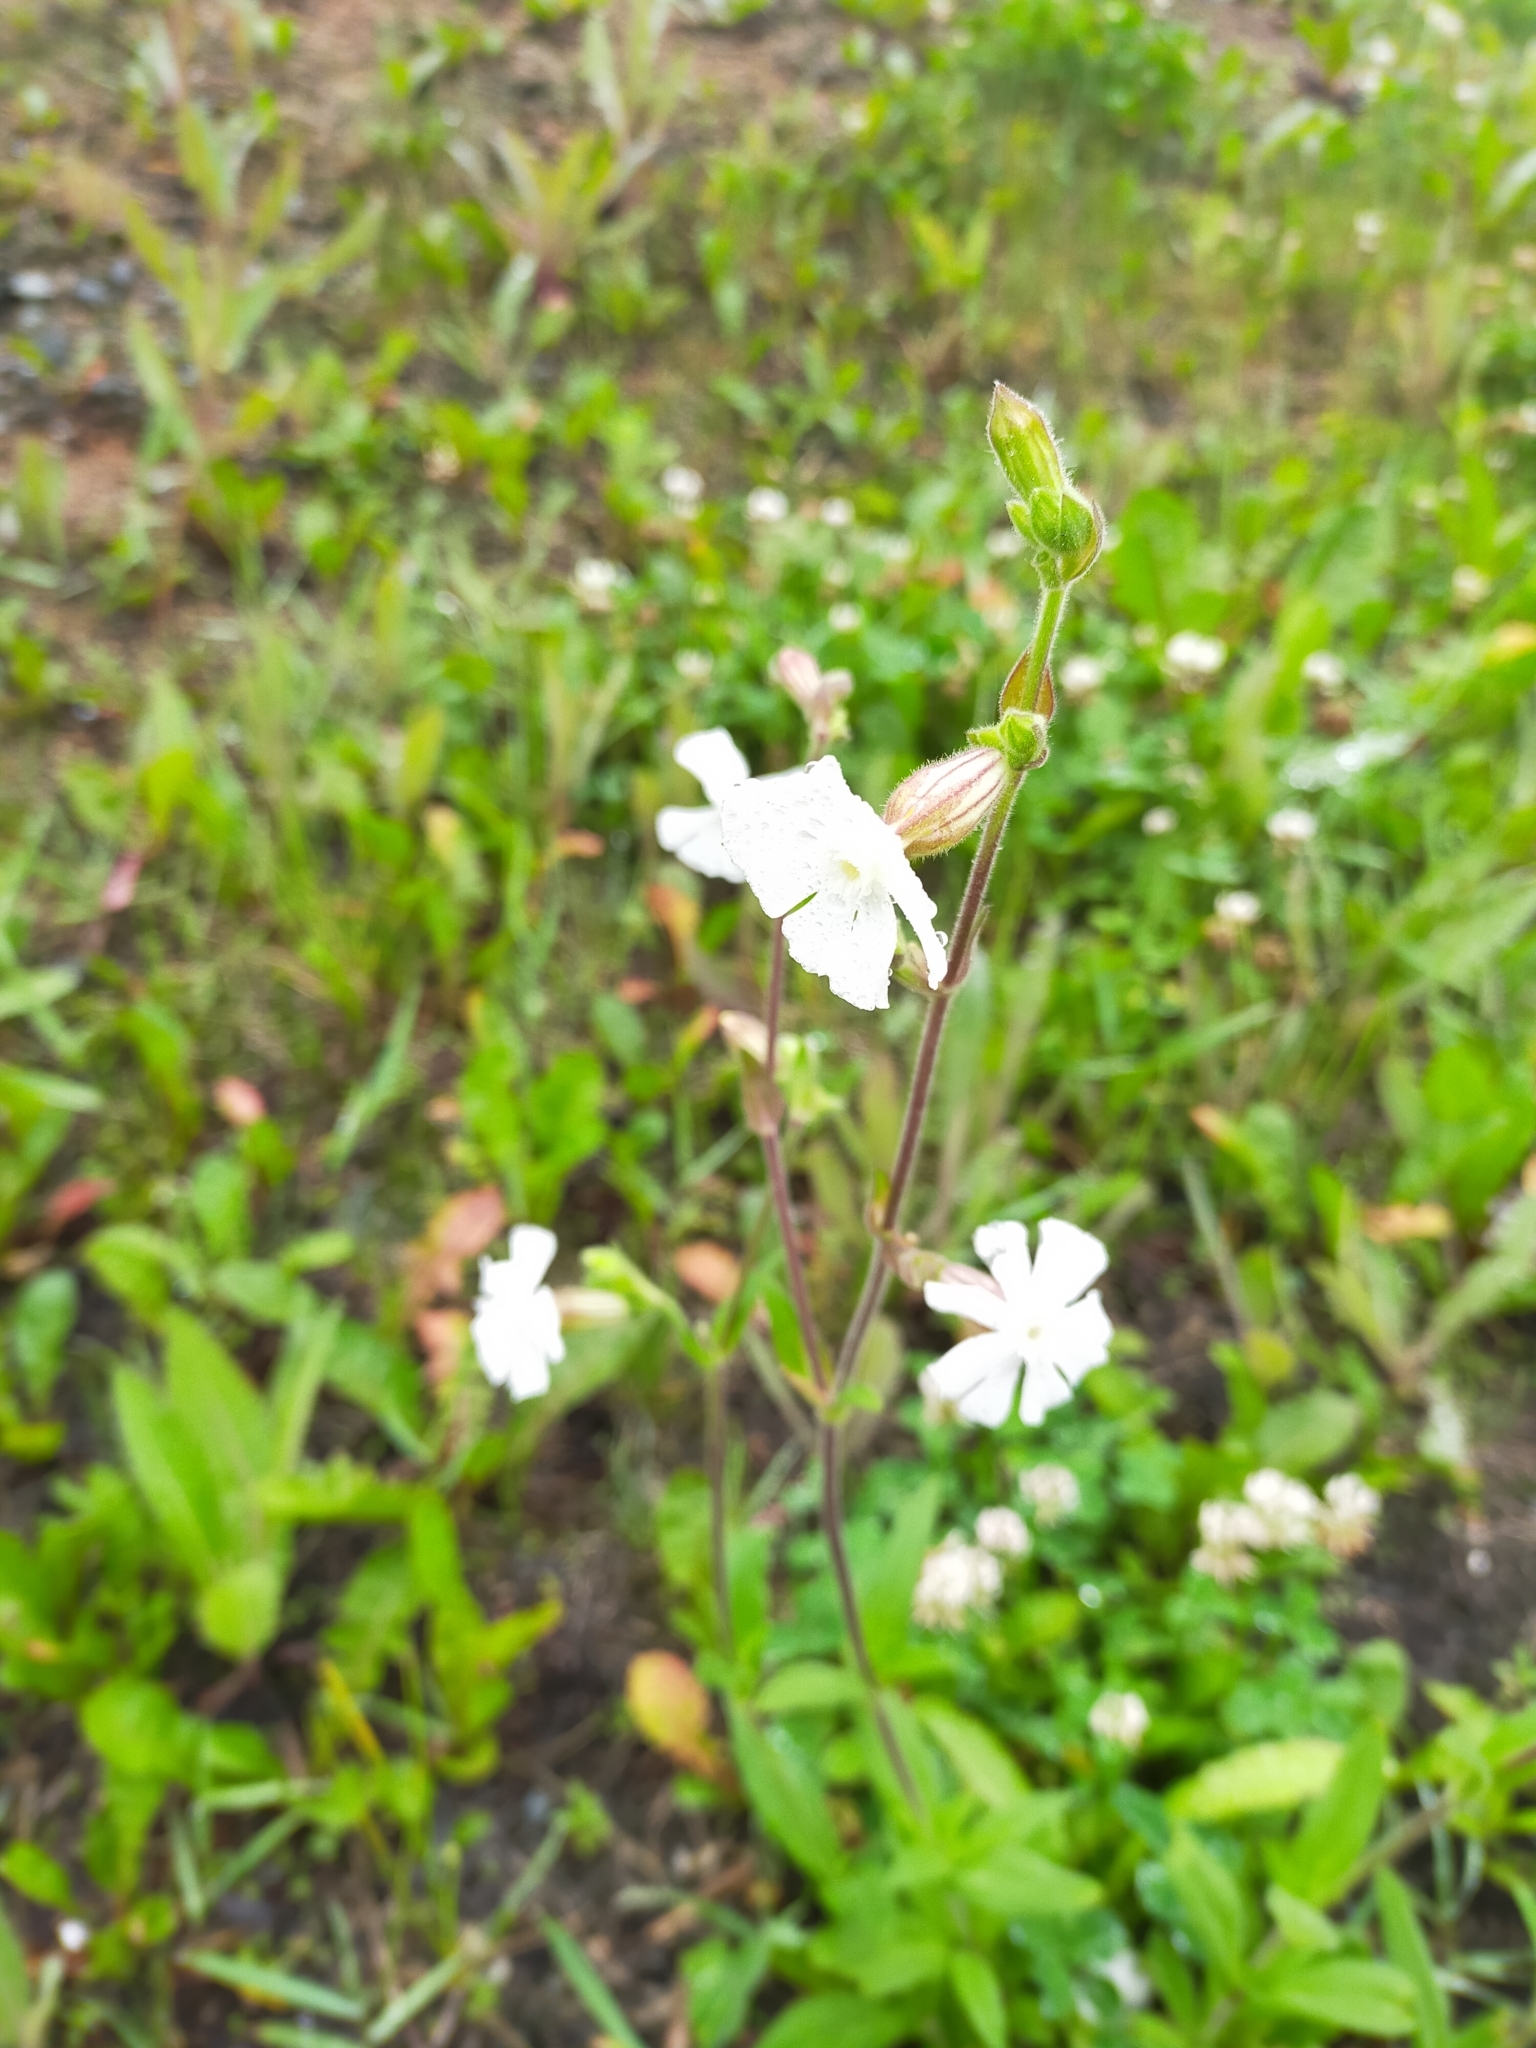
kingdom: Plantae
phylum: Tracheophyta
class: Magnoliopsida
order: Caryophyllales
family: Caryophyllaceae
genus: Silene
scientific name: Silene latifolia
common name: White campion
